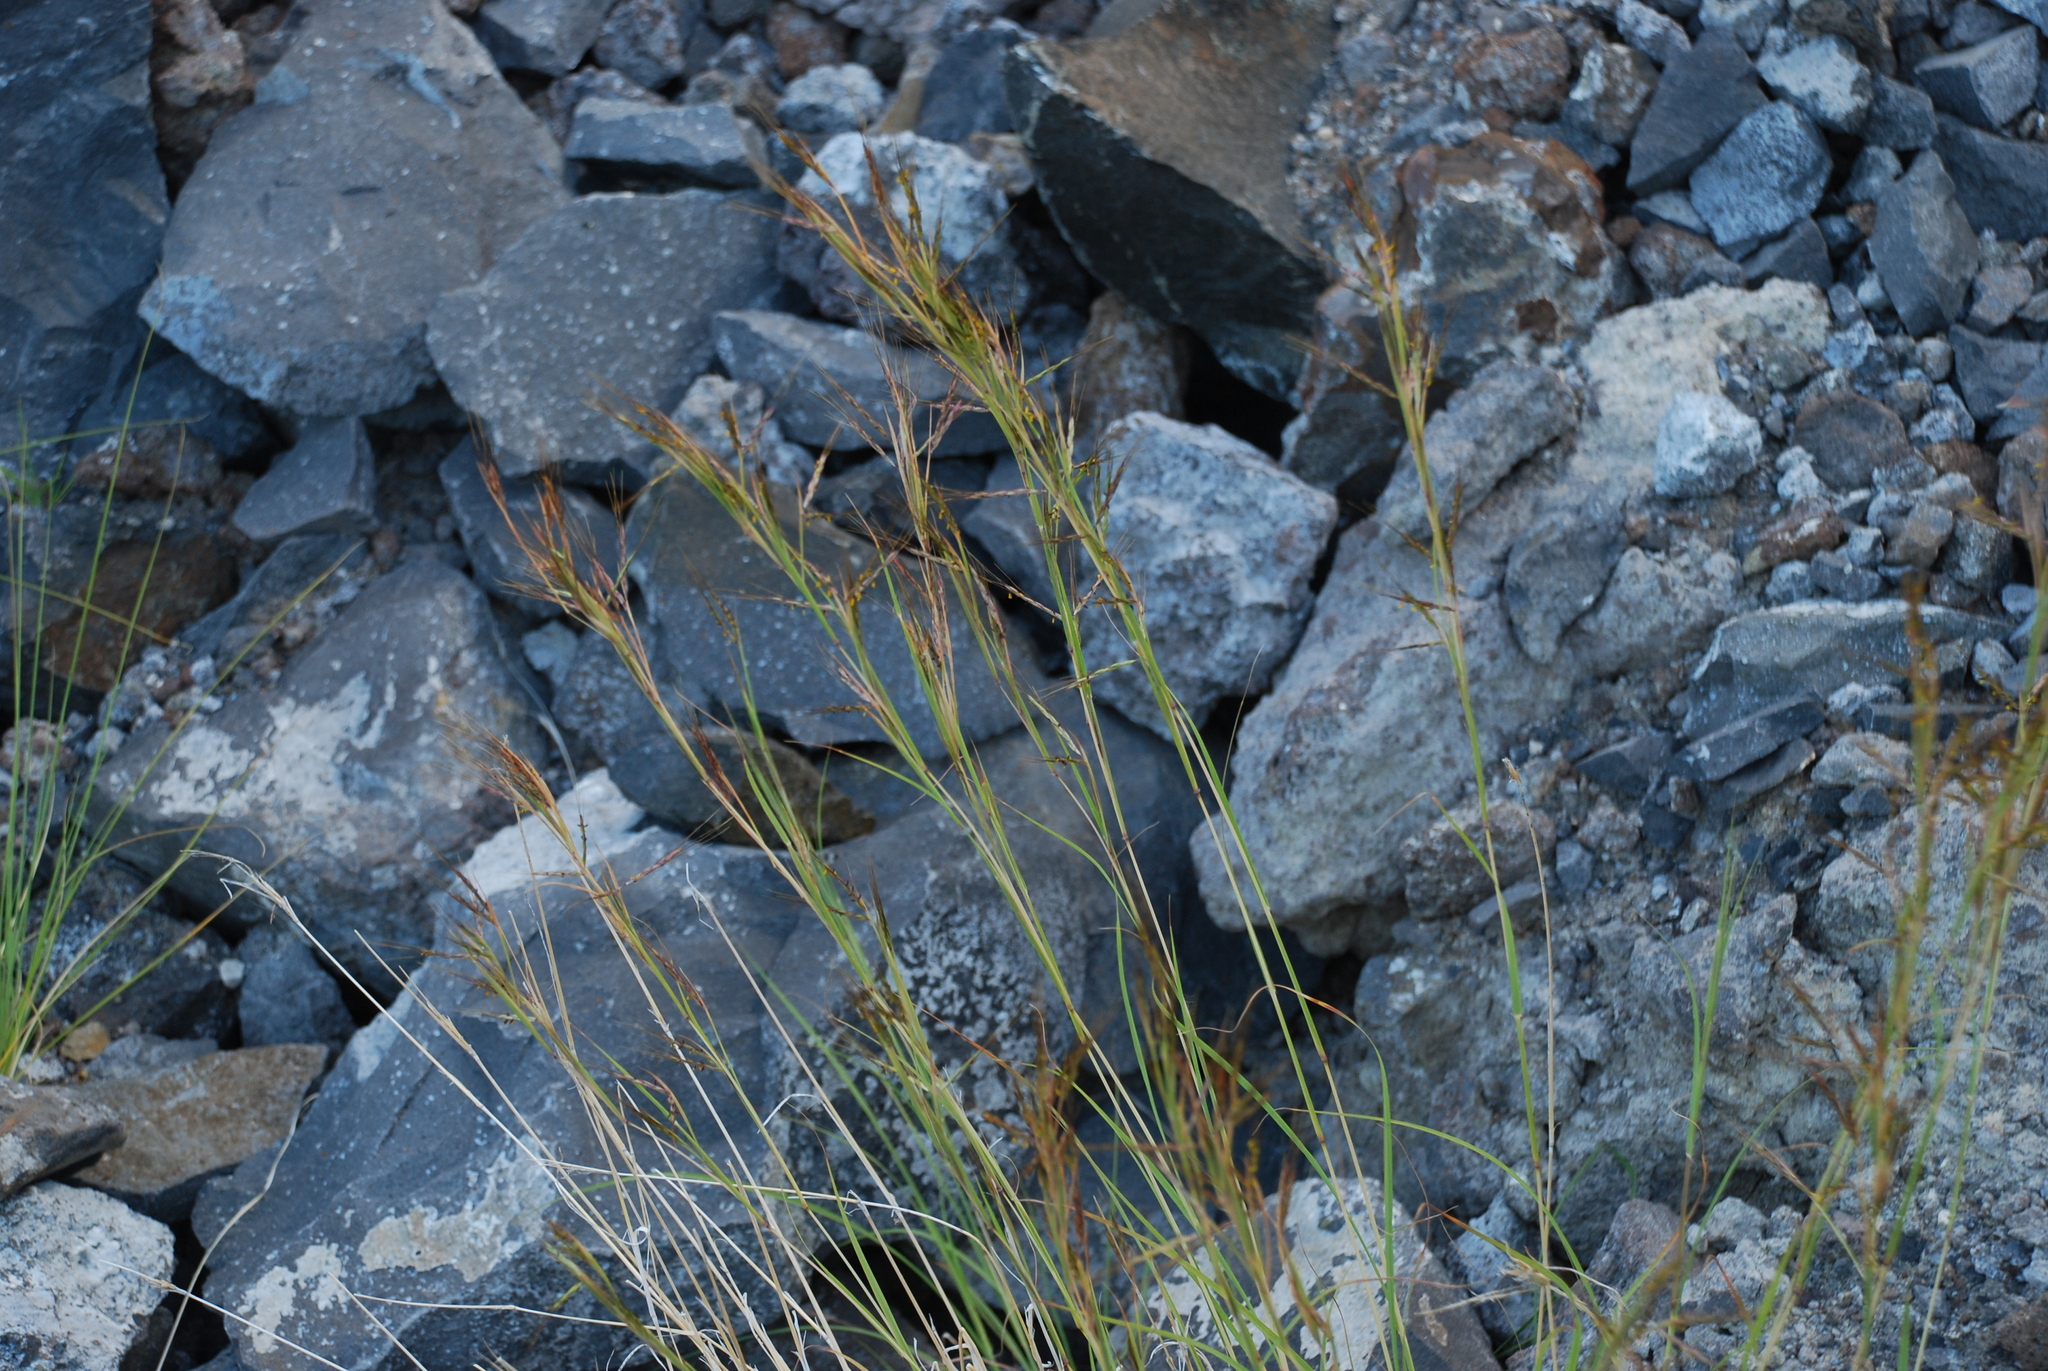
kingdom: Plantae
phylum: Tracheophyta
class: Liliopsida
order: Poales
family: Poaceae
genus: Hyparrhenia
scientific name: Hyparrhenia hirta
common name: Thatching grass
